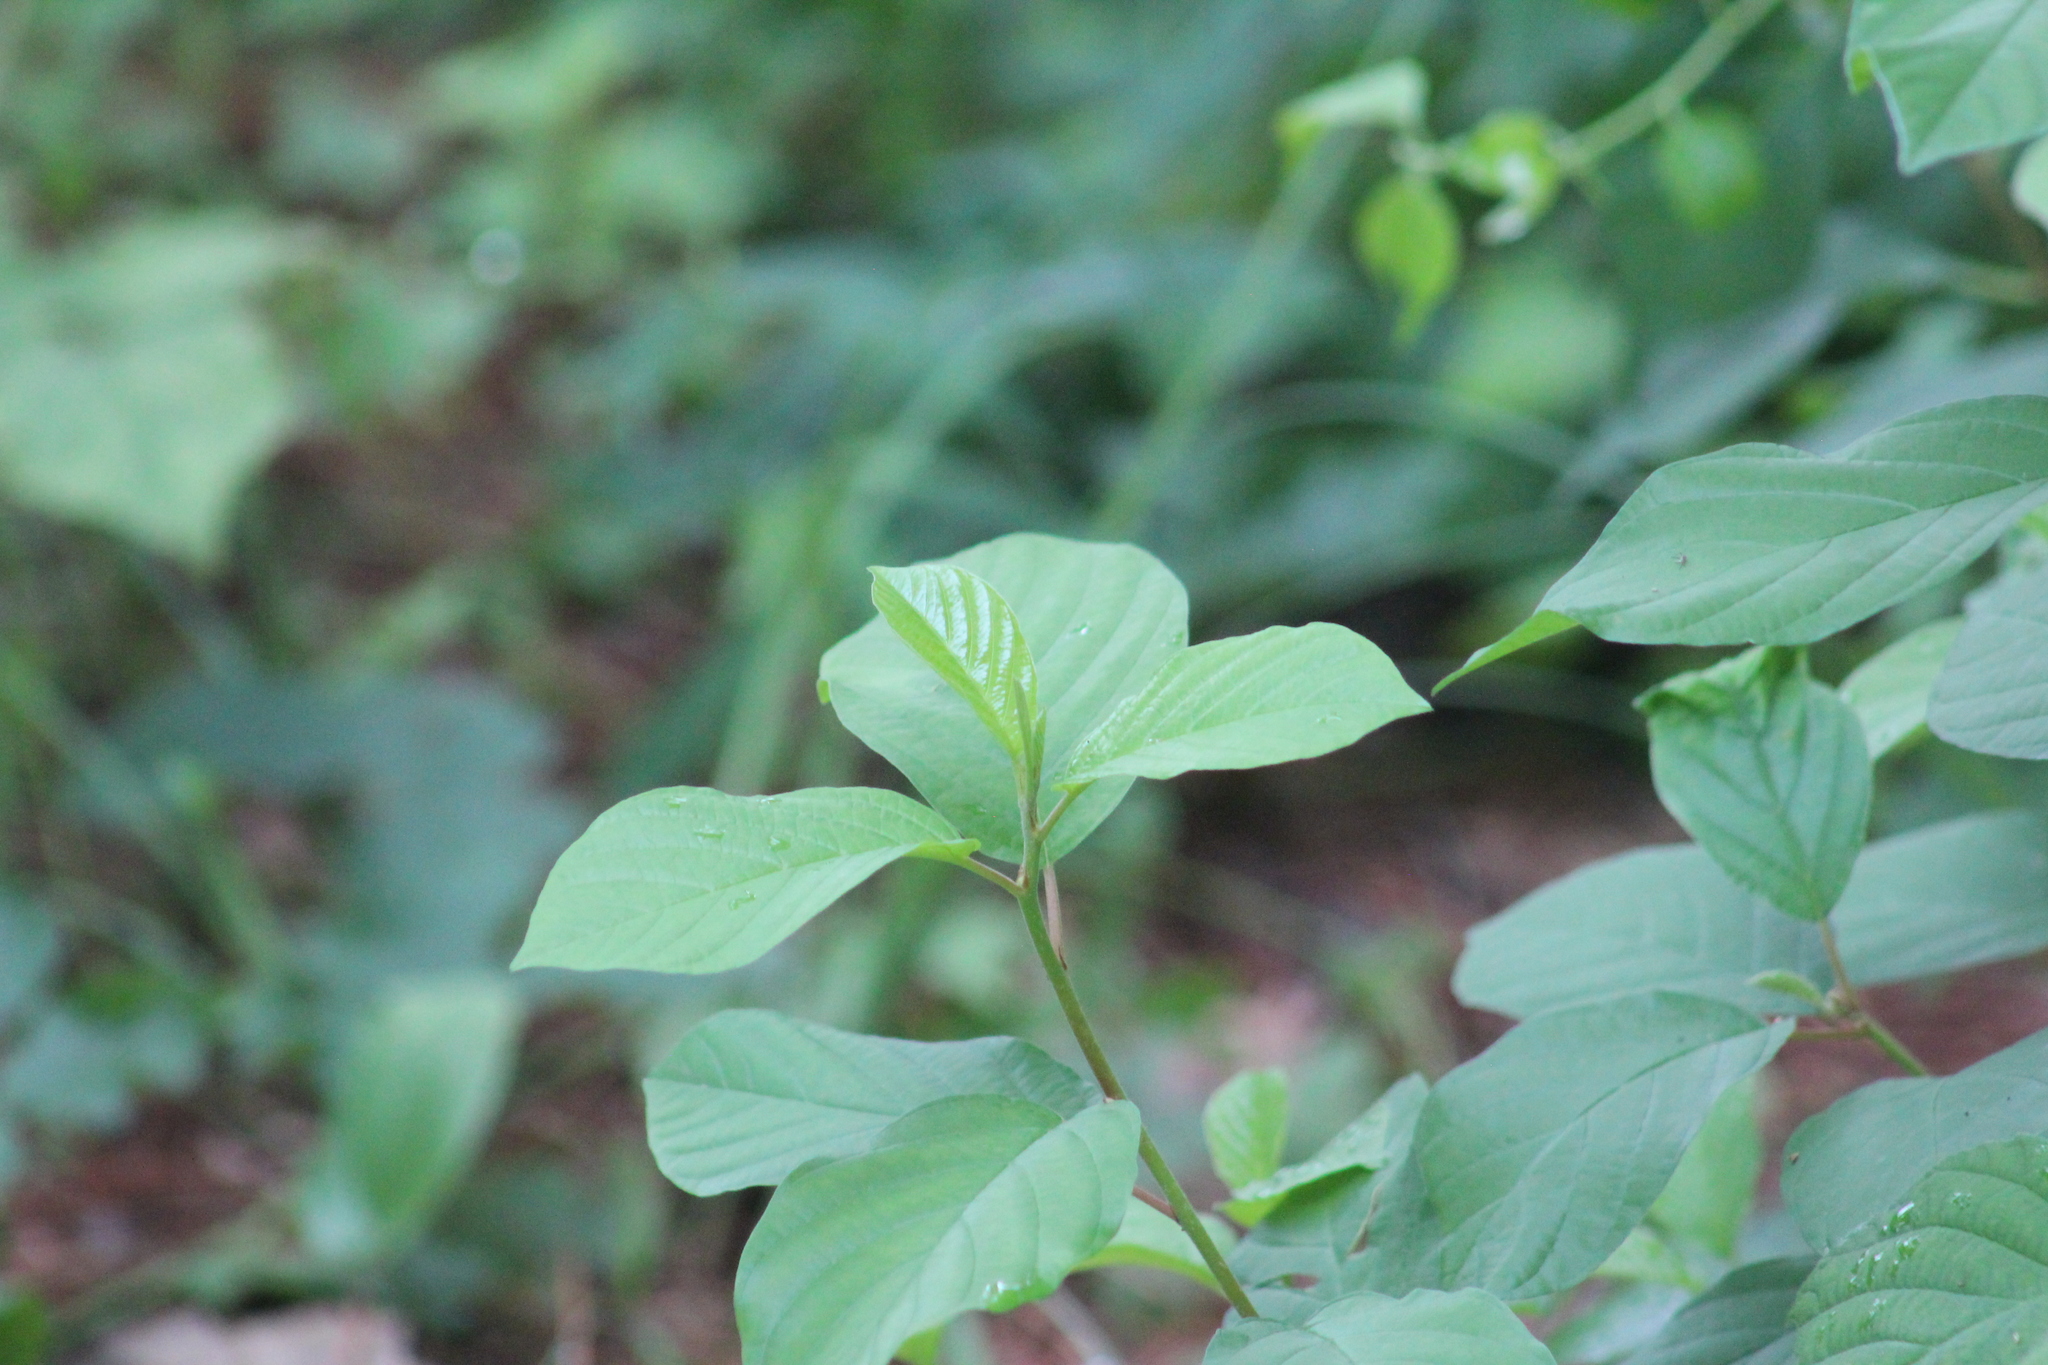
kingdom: Plantae
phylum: Tracheophyta
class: Magnoliopsida
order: Rosales
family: Rhamnaceae
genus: Frangula
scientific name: Frangula alnus
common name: Alder buckthorn
